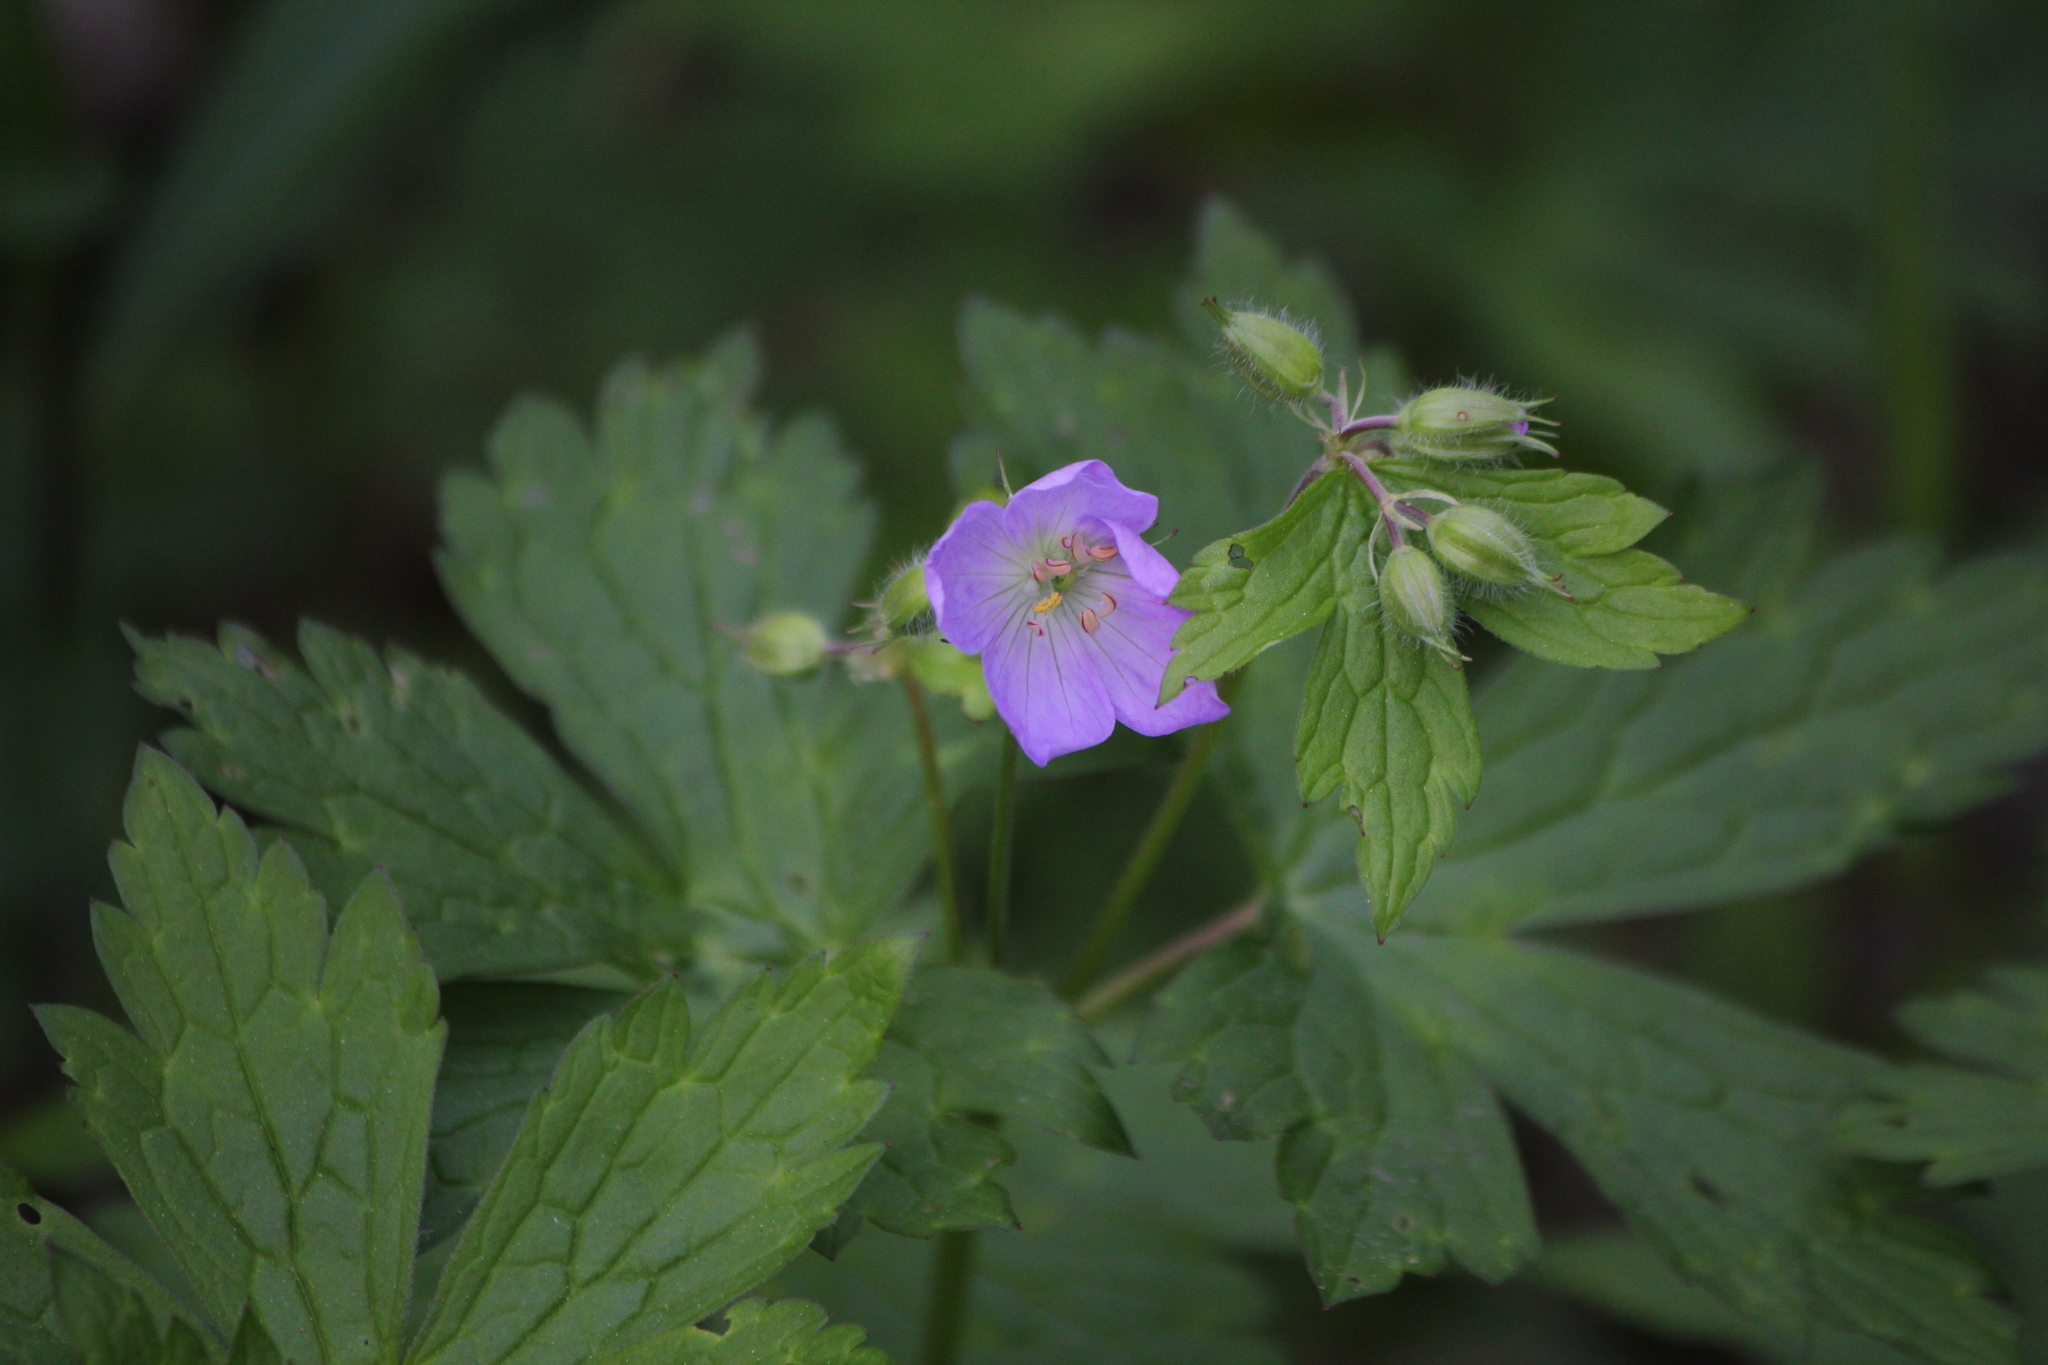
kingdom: Plantae
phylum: Tracheophyta
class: Magnoliopsida
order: Geraniales
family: Geraniaceae
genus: Geranium
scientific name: Geranium maculatum
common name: Spotted geranium
